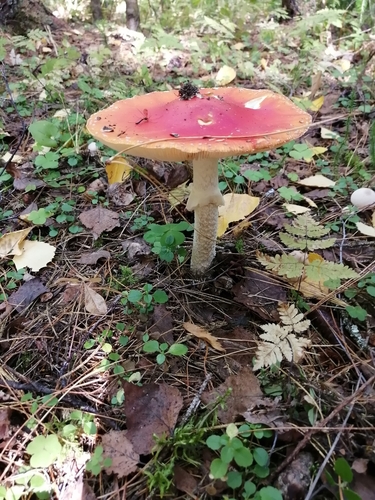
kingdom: Fungi
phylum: Basidiomycota
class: Agaricomycetes
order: Agaricales
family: Amanitaceae
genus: Amanita
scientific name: Amanita muscaria
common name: Fly agaric
